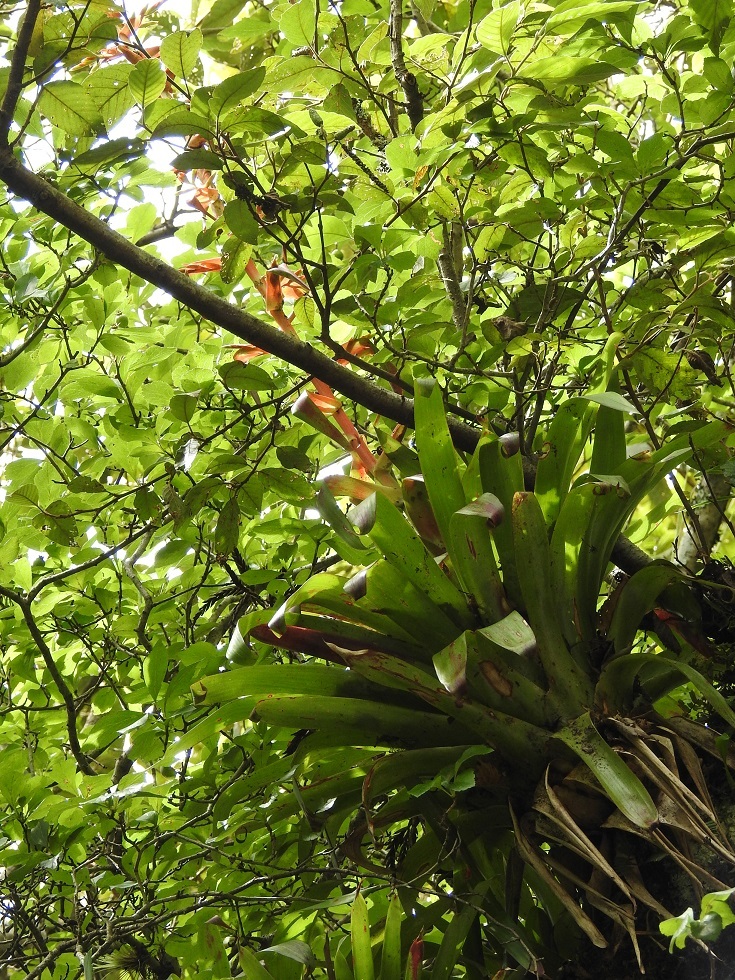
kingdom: Plantae
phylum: Tracheophyta
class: Liliopsida
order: Poales
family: Bromeliaceae
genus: Tillandsia
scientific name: Tillandsia guatemalensis
